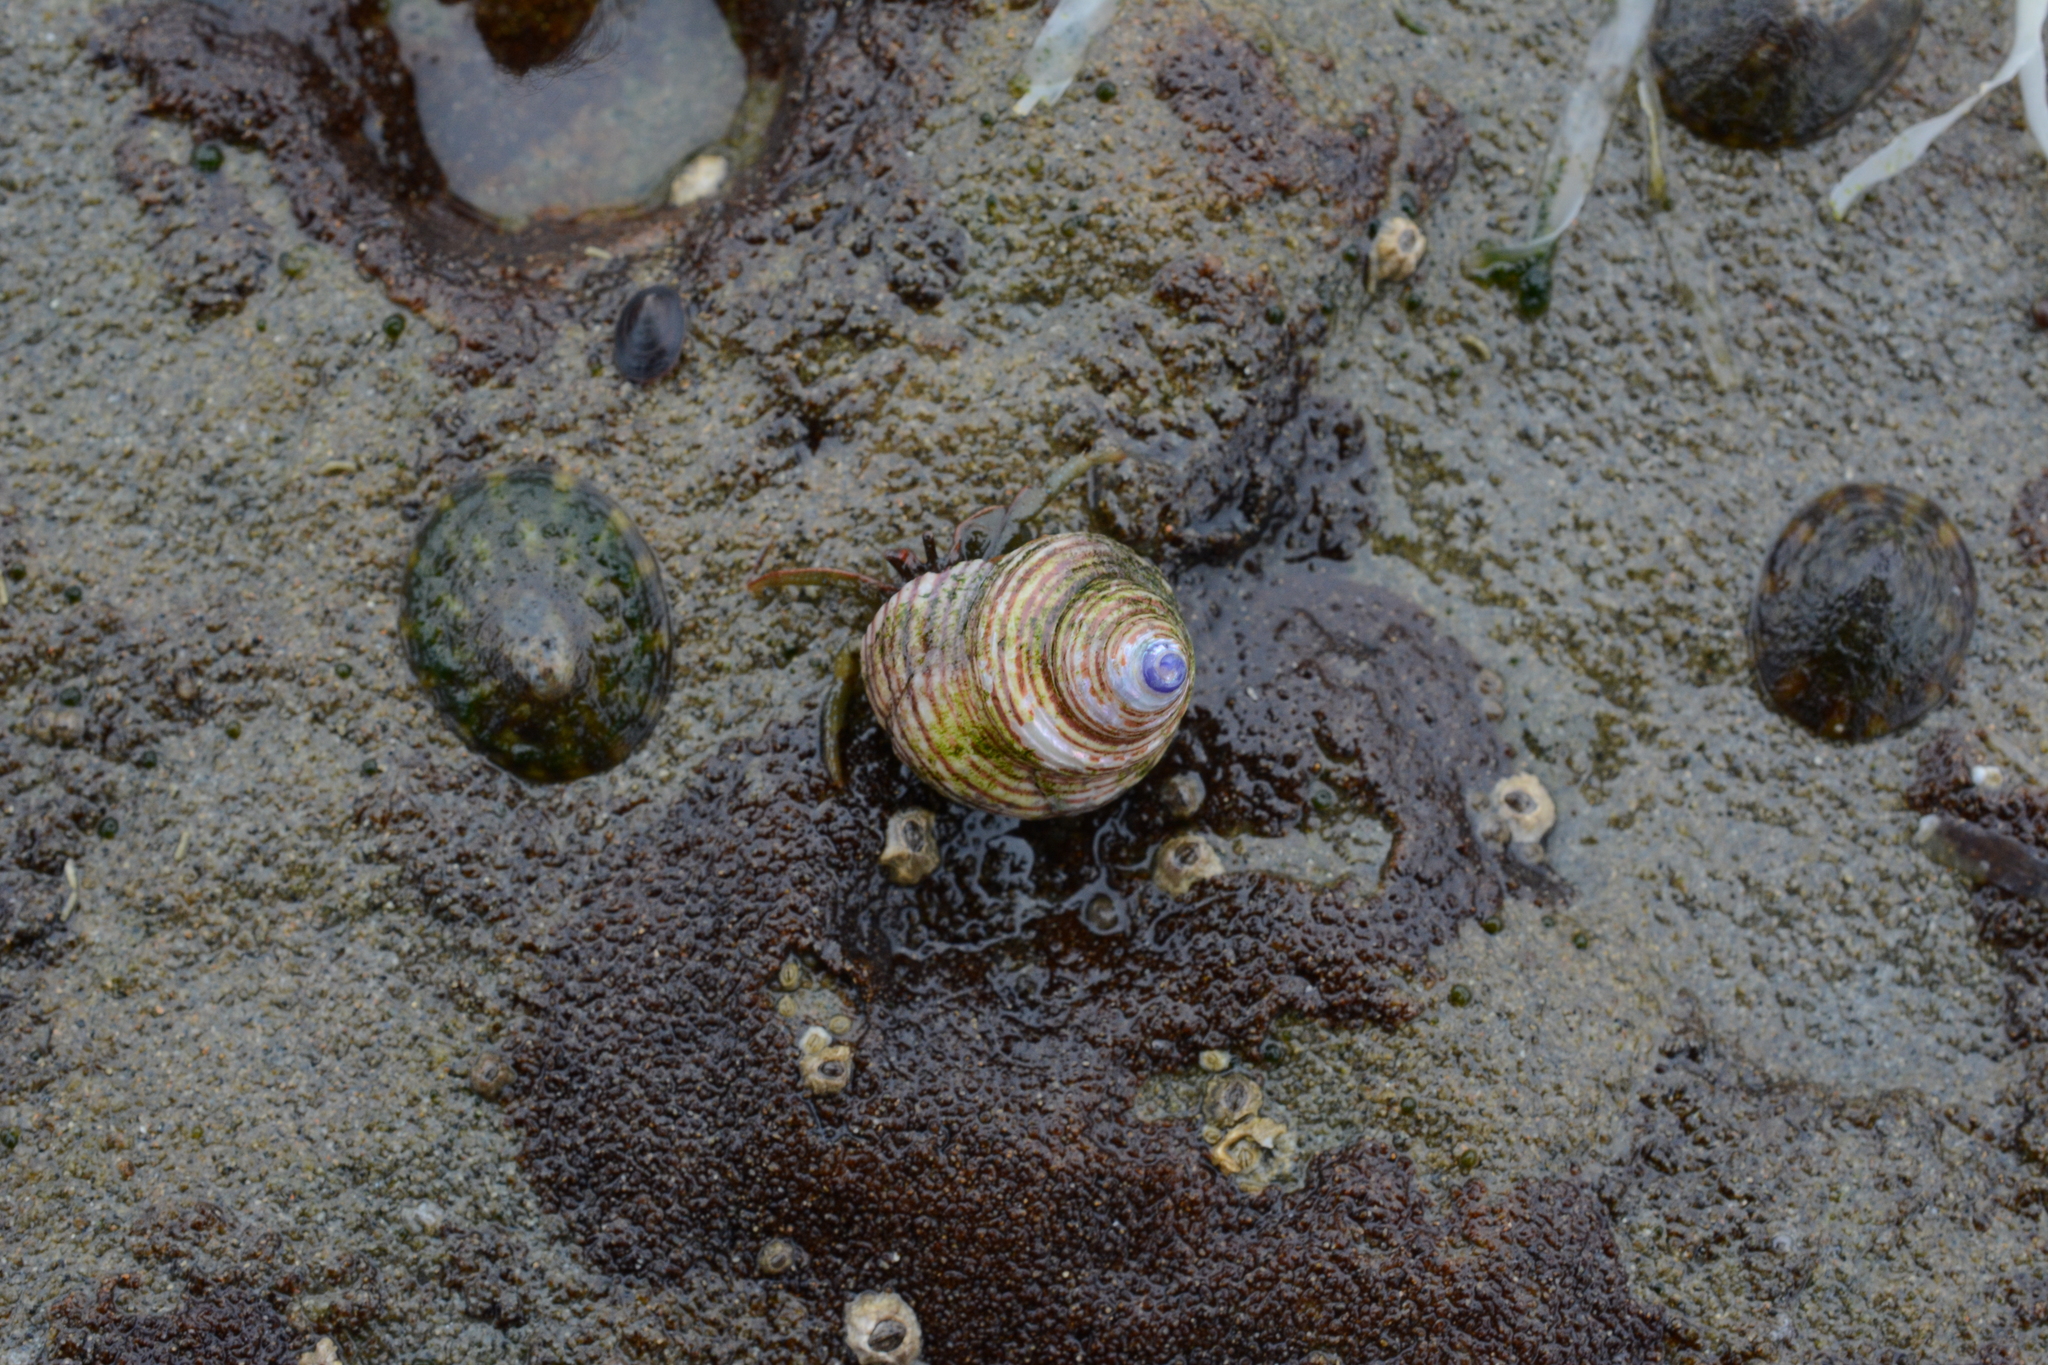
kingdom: Animalia
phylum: Arthropoda
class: Malacostraca
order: Decapoda
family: Paguridae
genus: Pagurus
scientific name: Pagurus granosimanus
